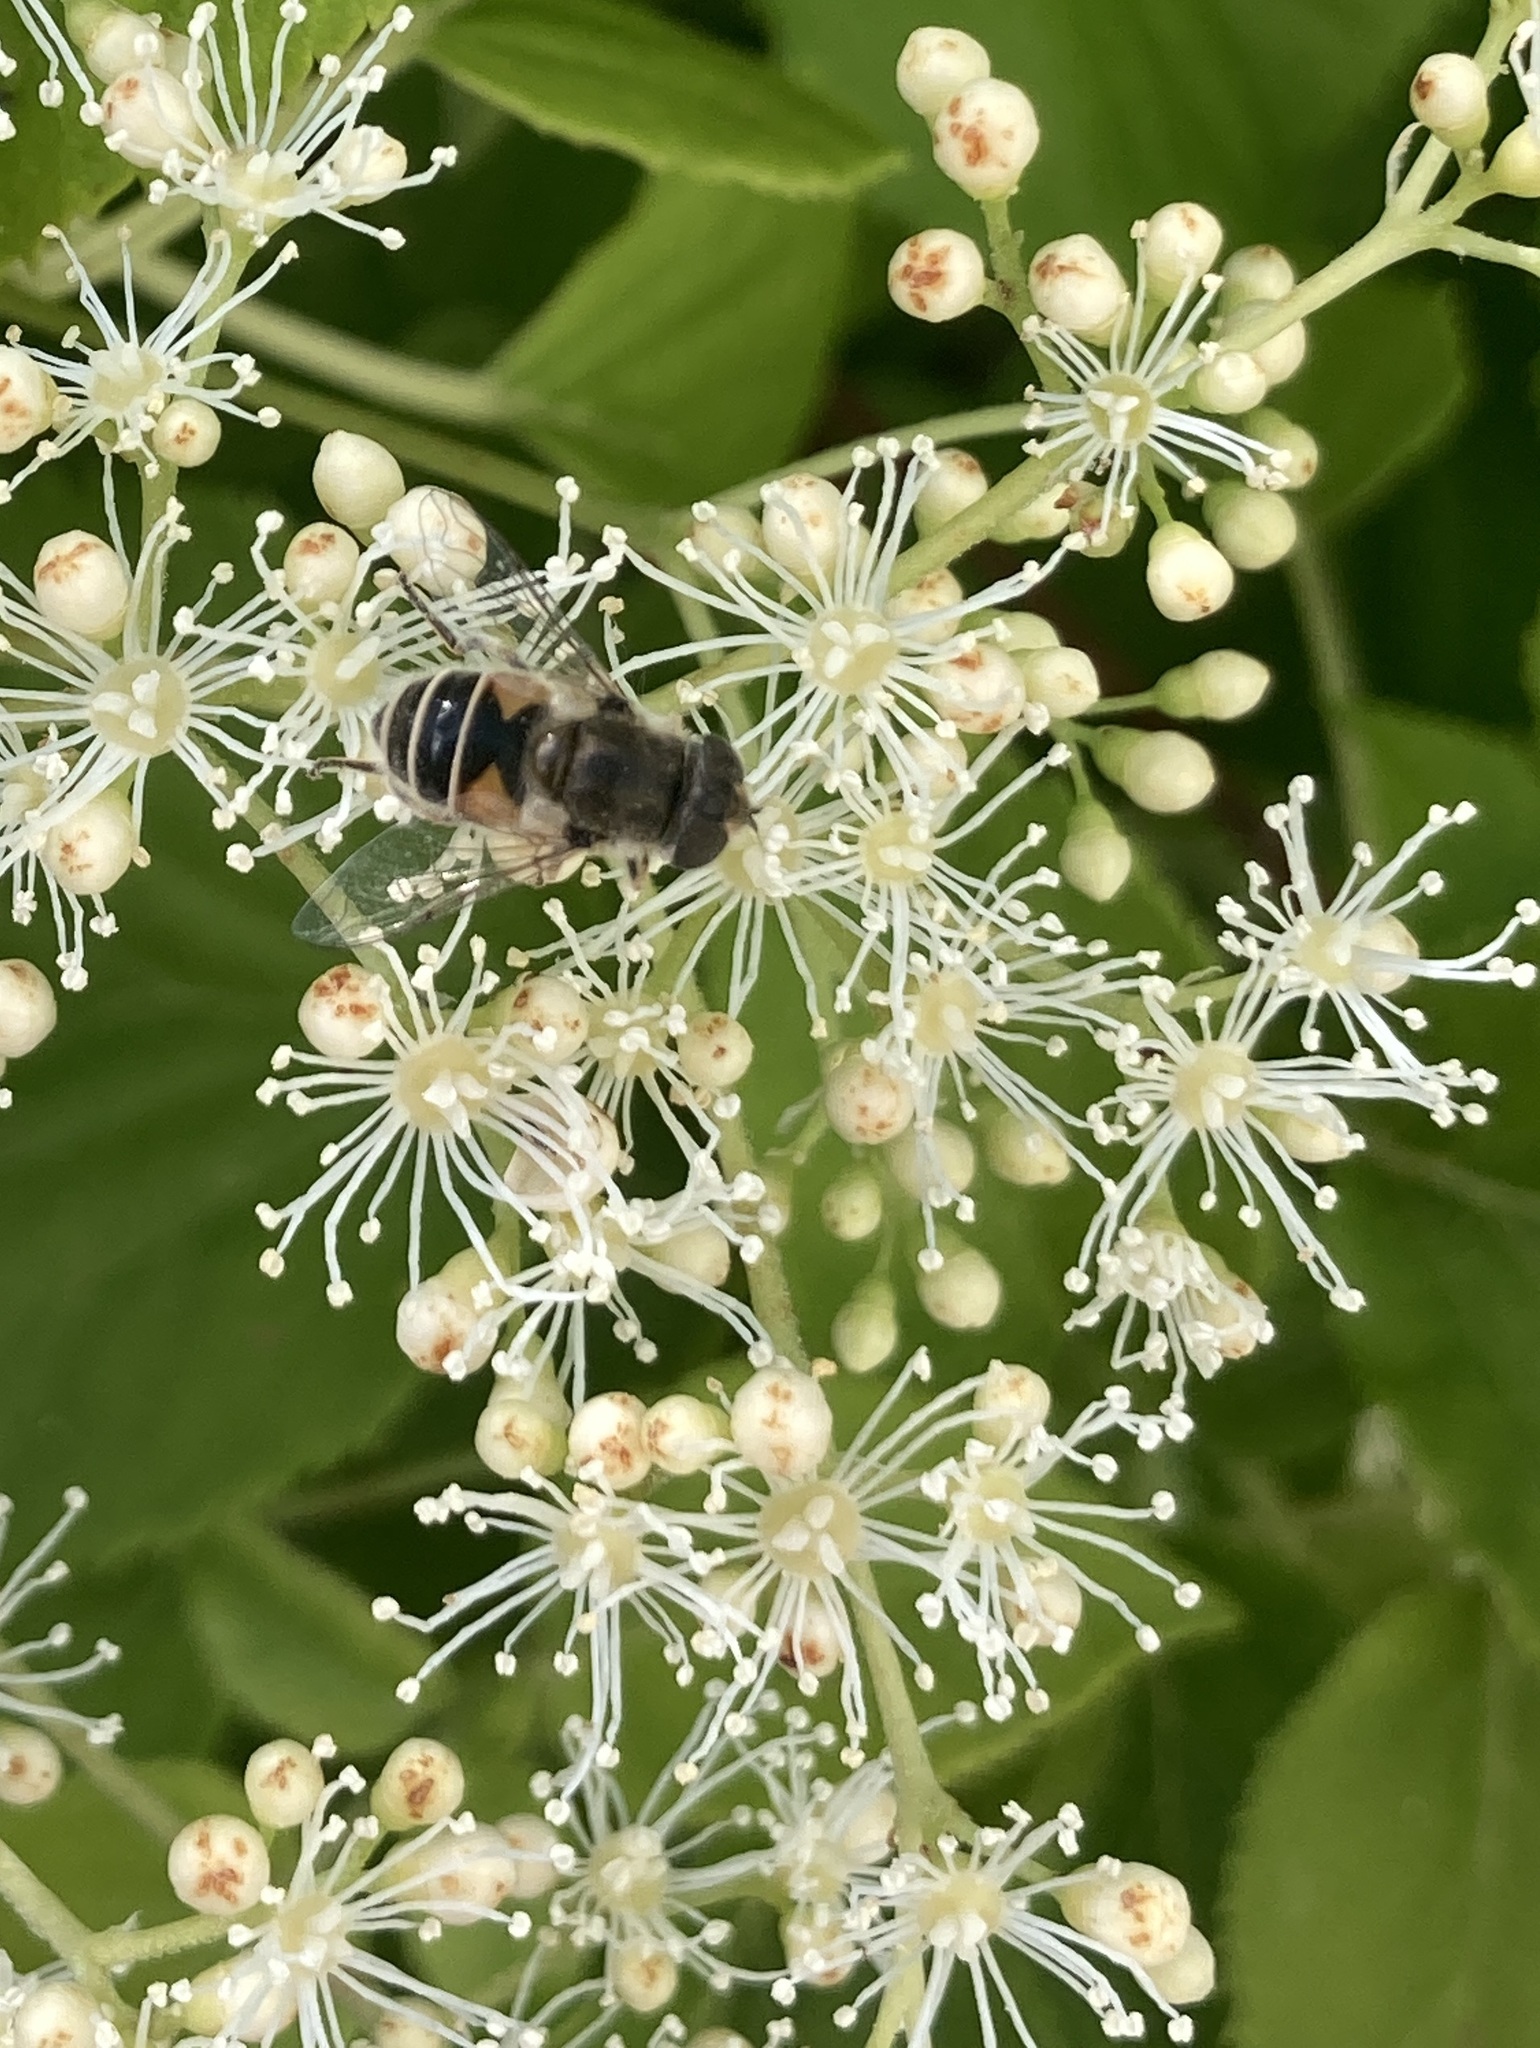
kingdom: Animalia
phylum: Arthropoda
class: Insecta
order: Diptera
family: Syrphidae
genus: Eristalis
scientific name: Eristalis arbustorum
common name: Hover fly
